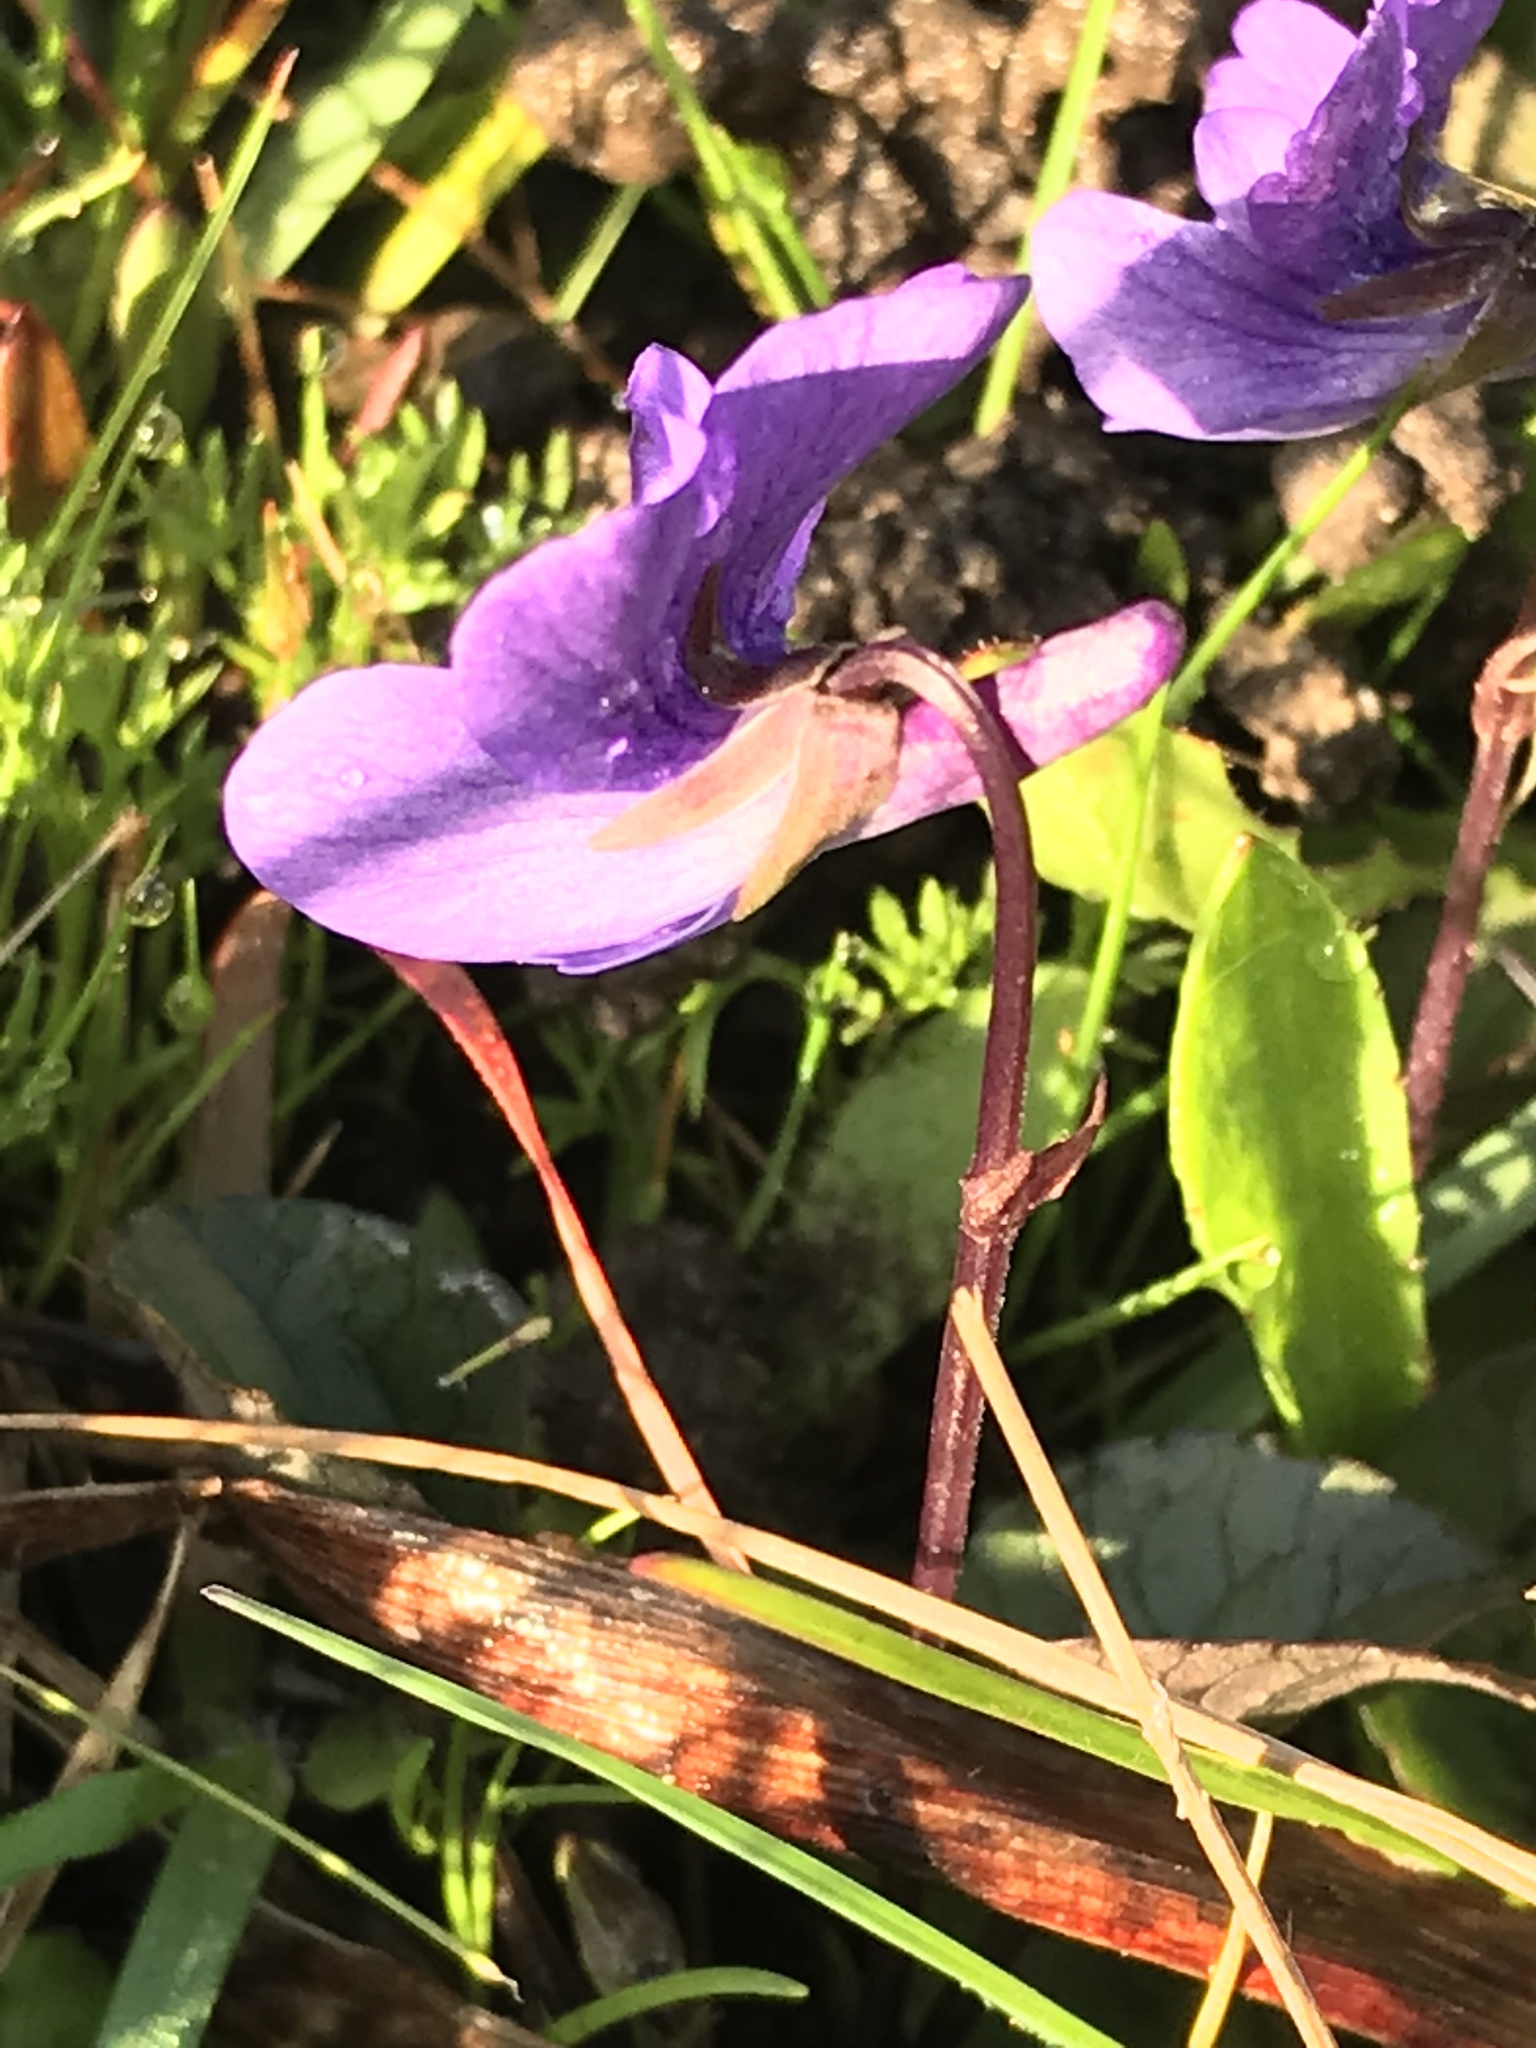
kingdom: Plantae
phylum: Tracheophyta
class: Magnoliopsida
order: Malpighiales
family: Violaceae
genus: Viola
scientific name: Viola adunca
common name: Sand violet
